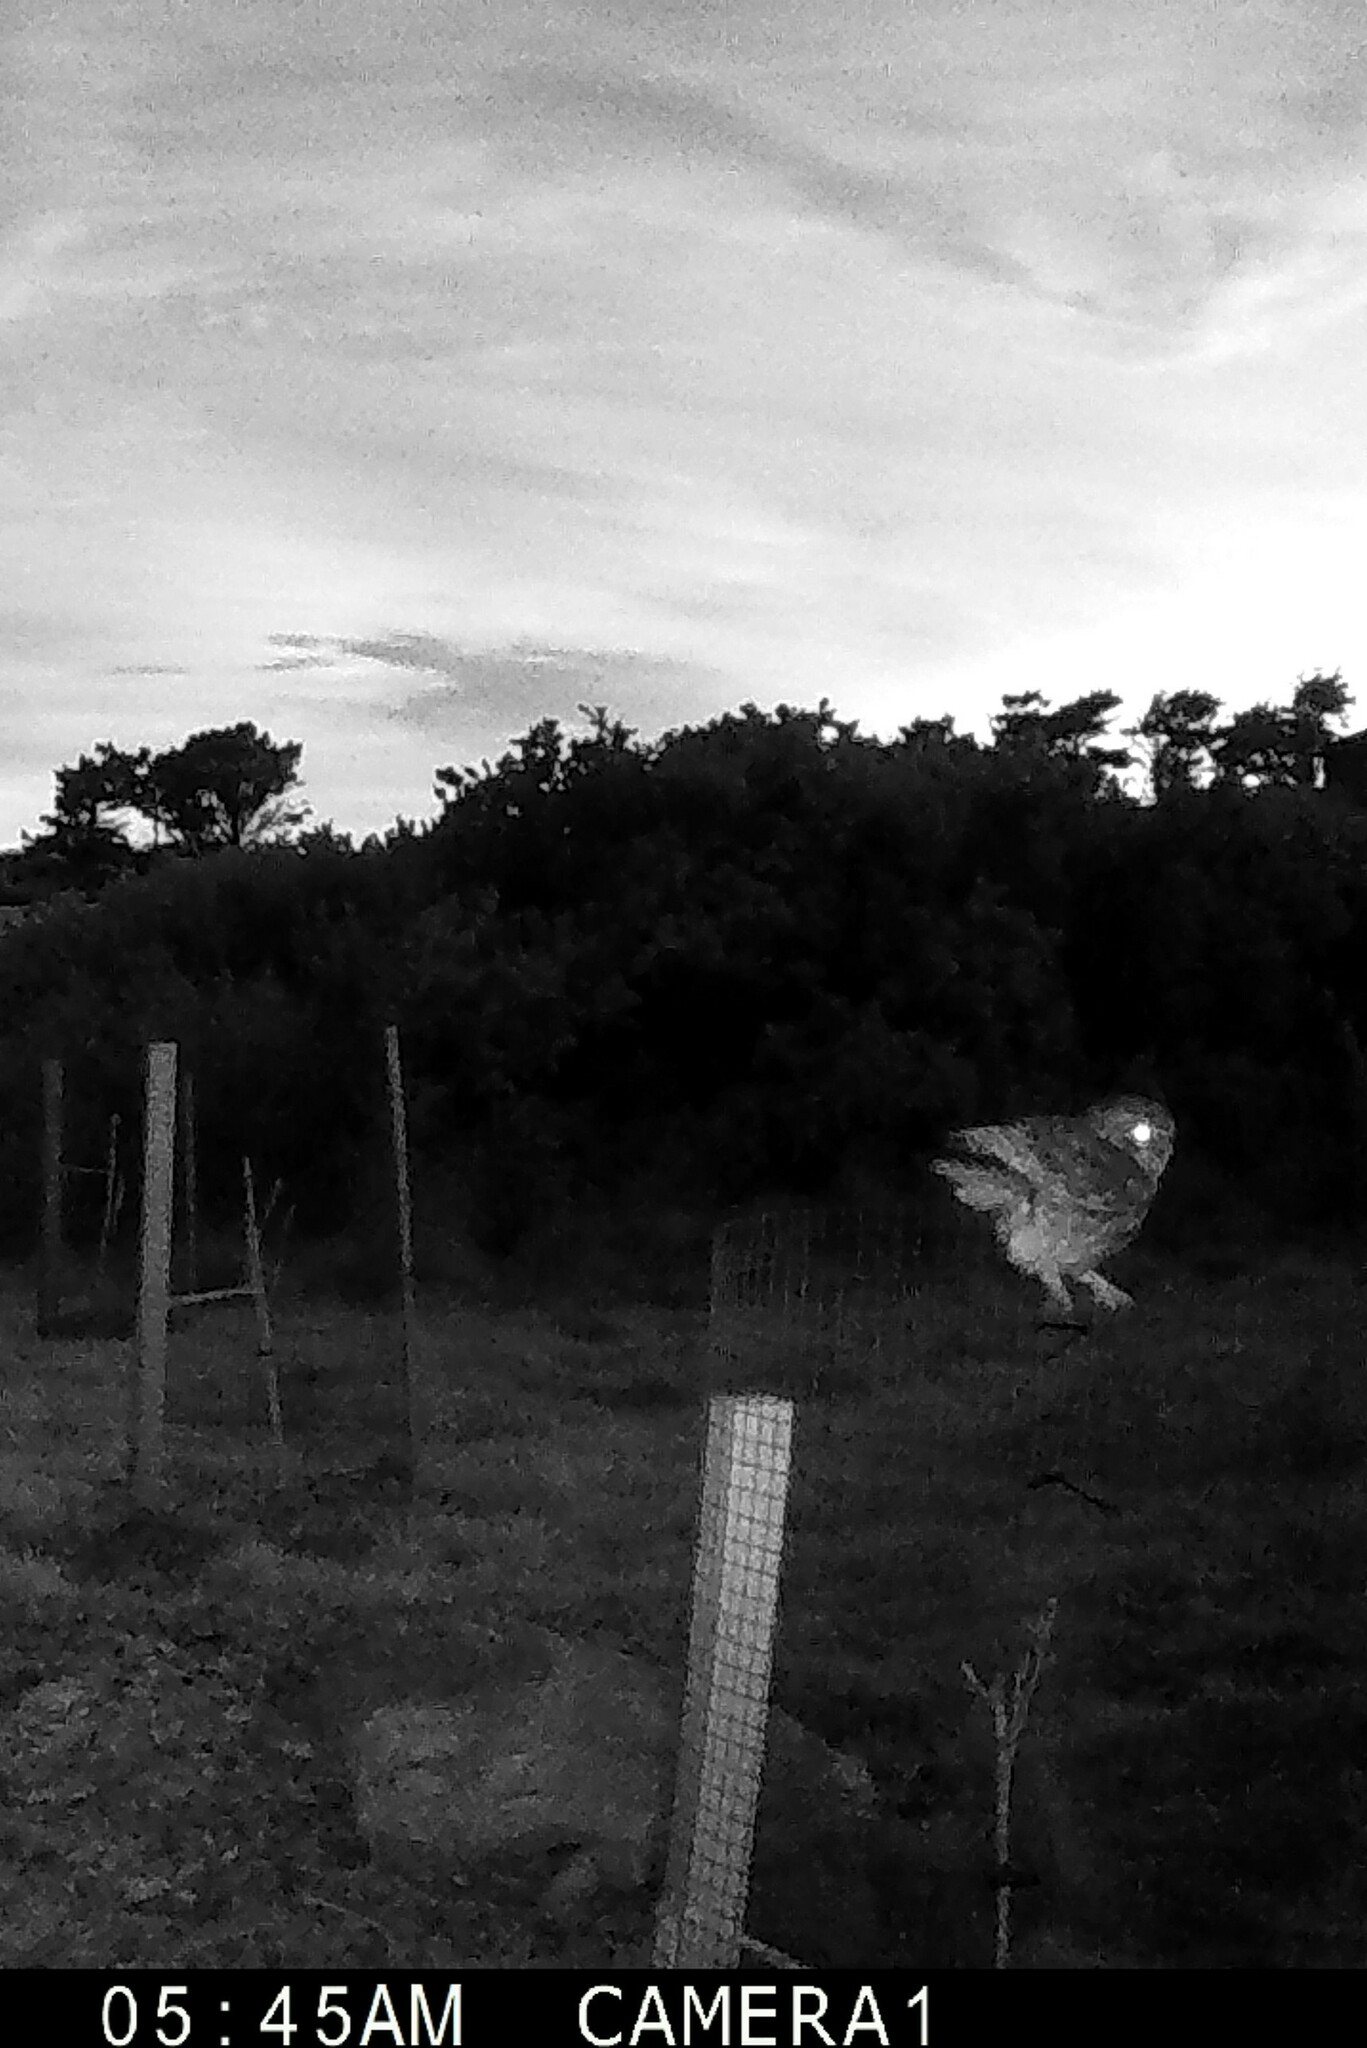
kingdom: Animalia
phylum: Chordata
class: Aves
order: Strigiformes
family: Strigidae
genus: Athene
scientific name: Athene noctua
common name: Little owl
